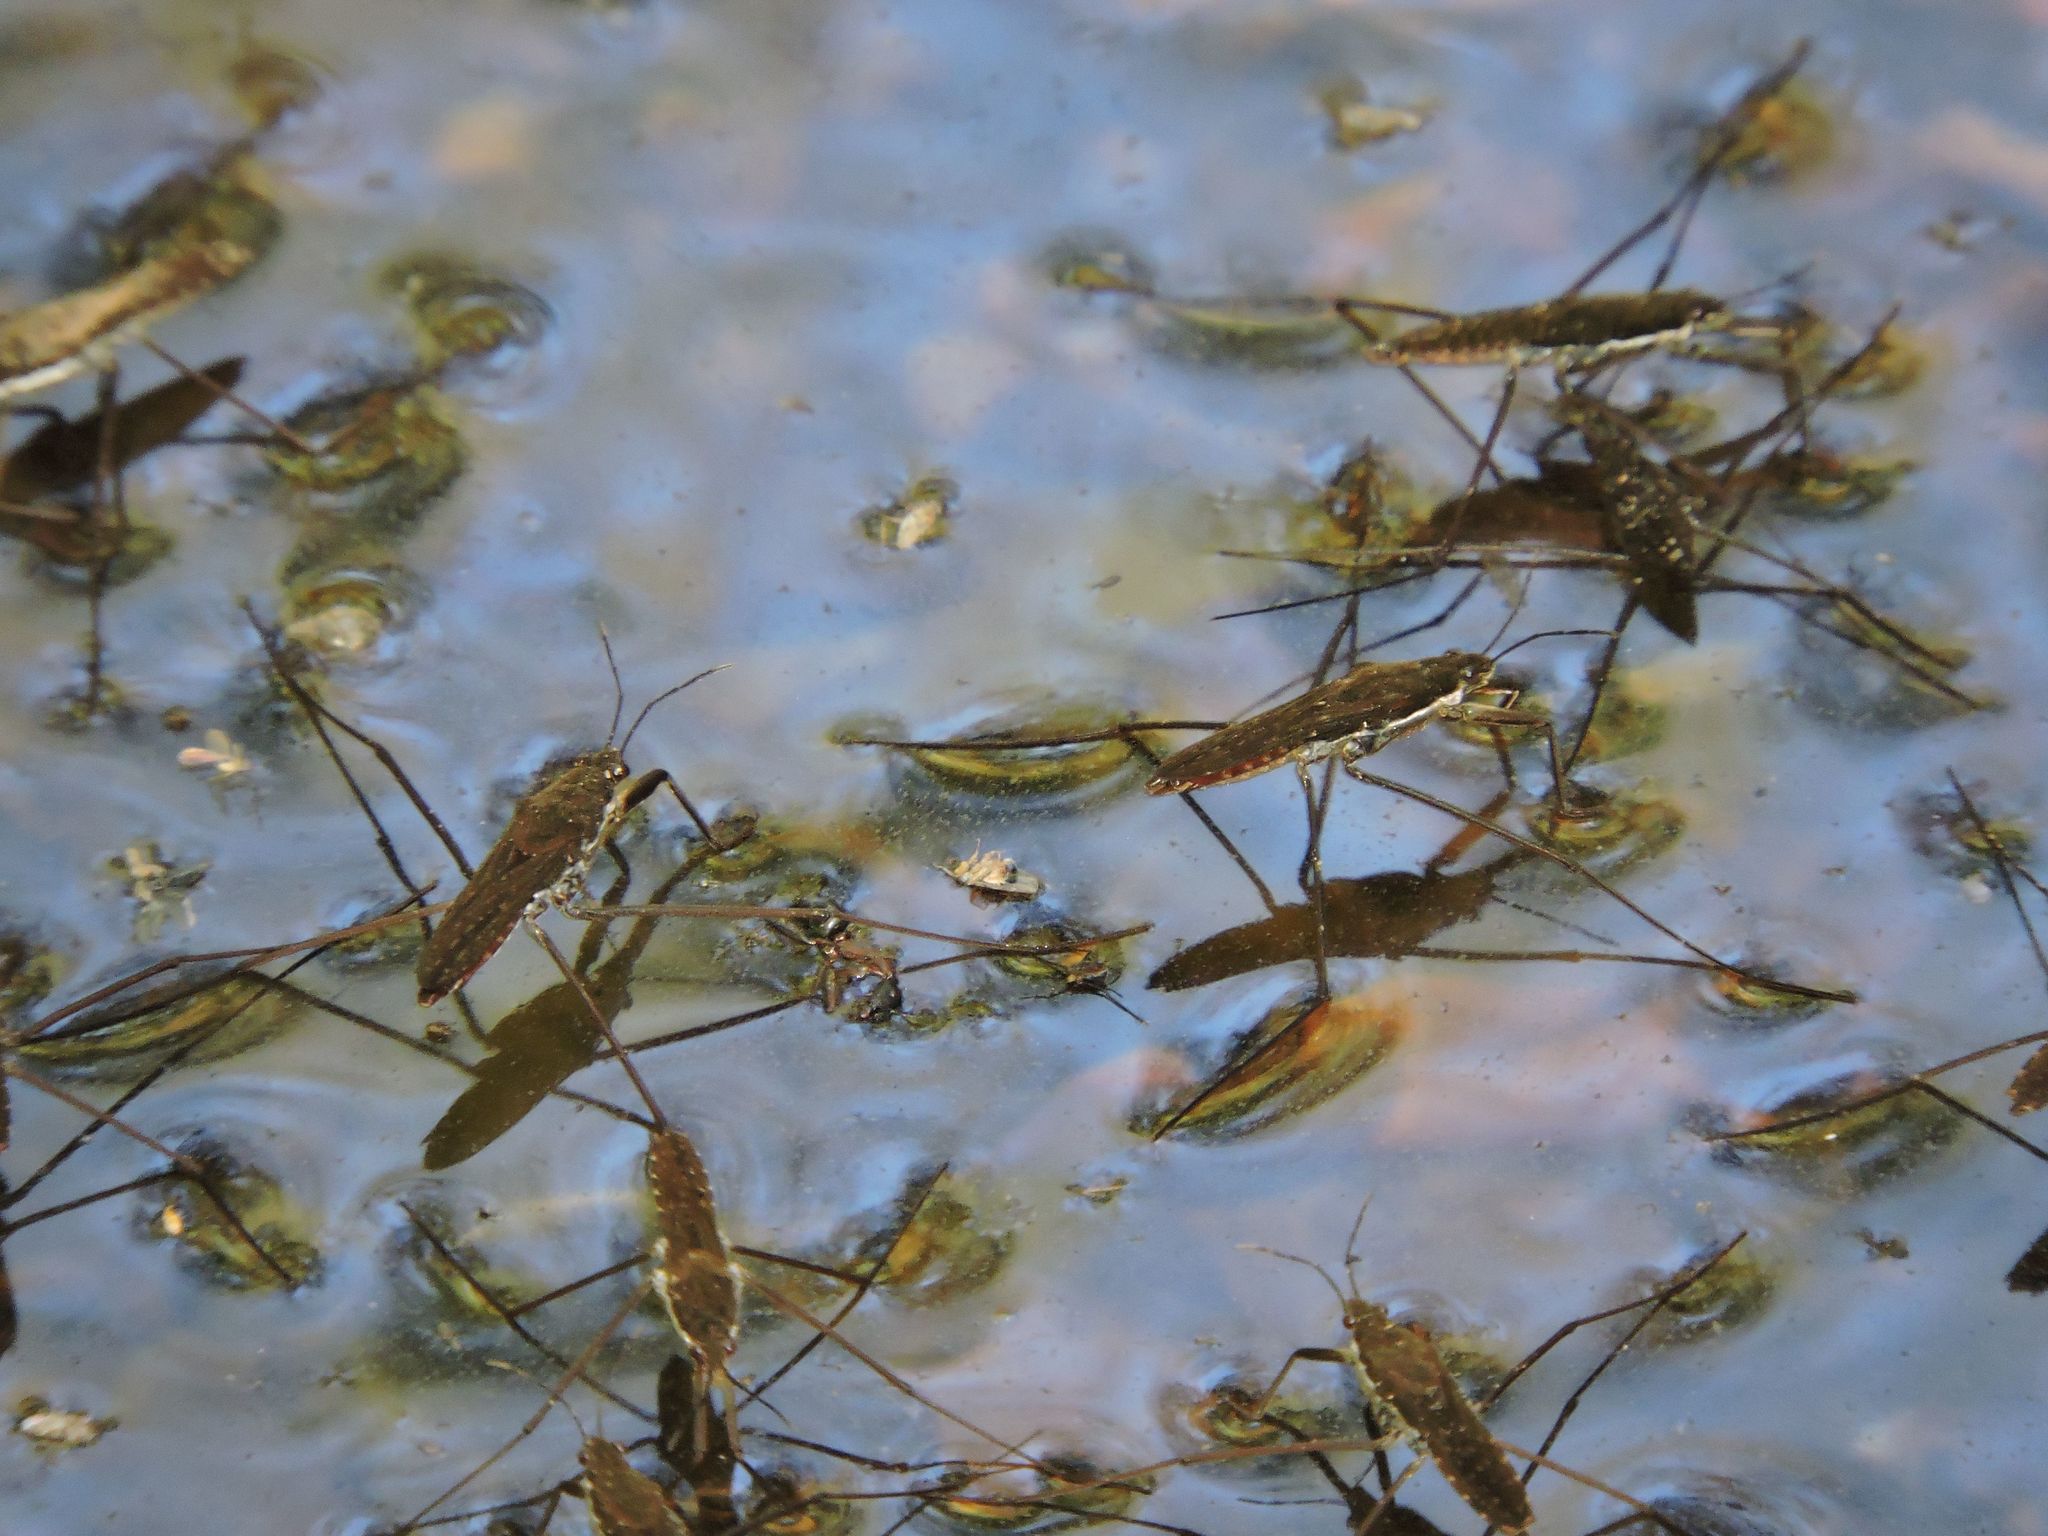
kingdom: Animalia
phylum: Arthropoda
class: Insecta
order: Hemiptera
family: Gerridae
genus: Aquarius
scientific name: Aquarius remigis
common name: Common water strider
